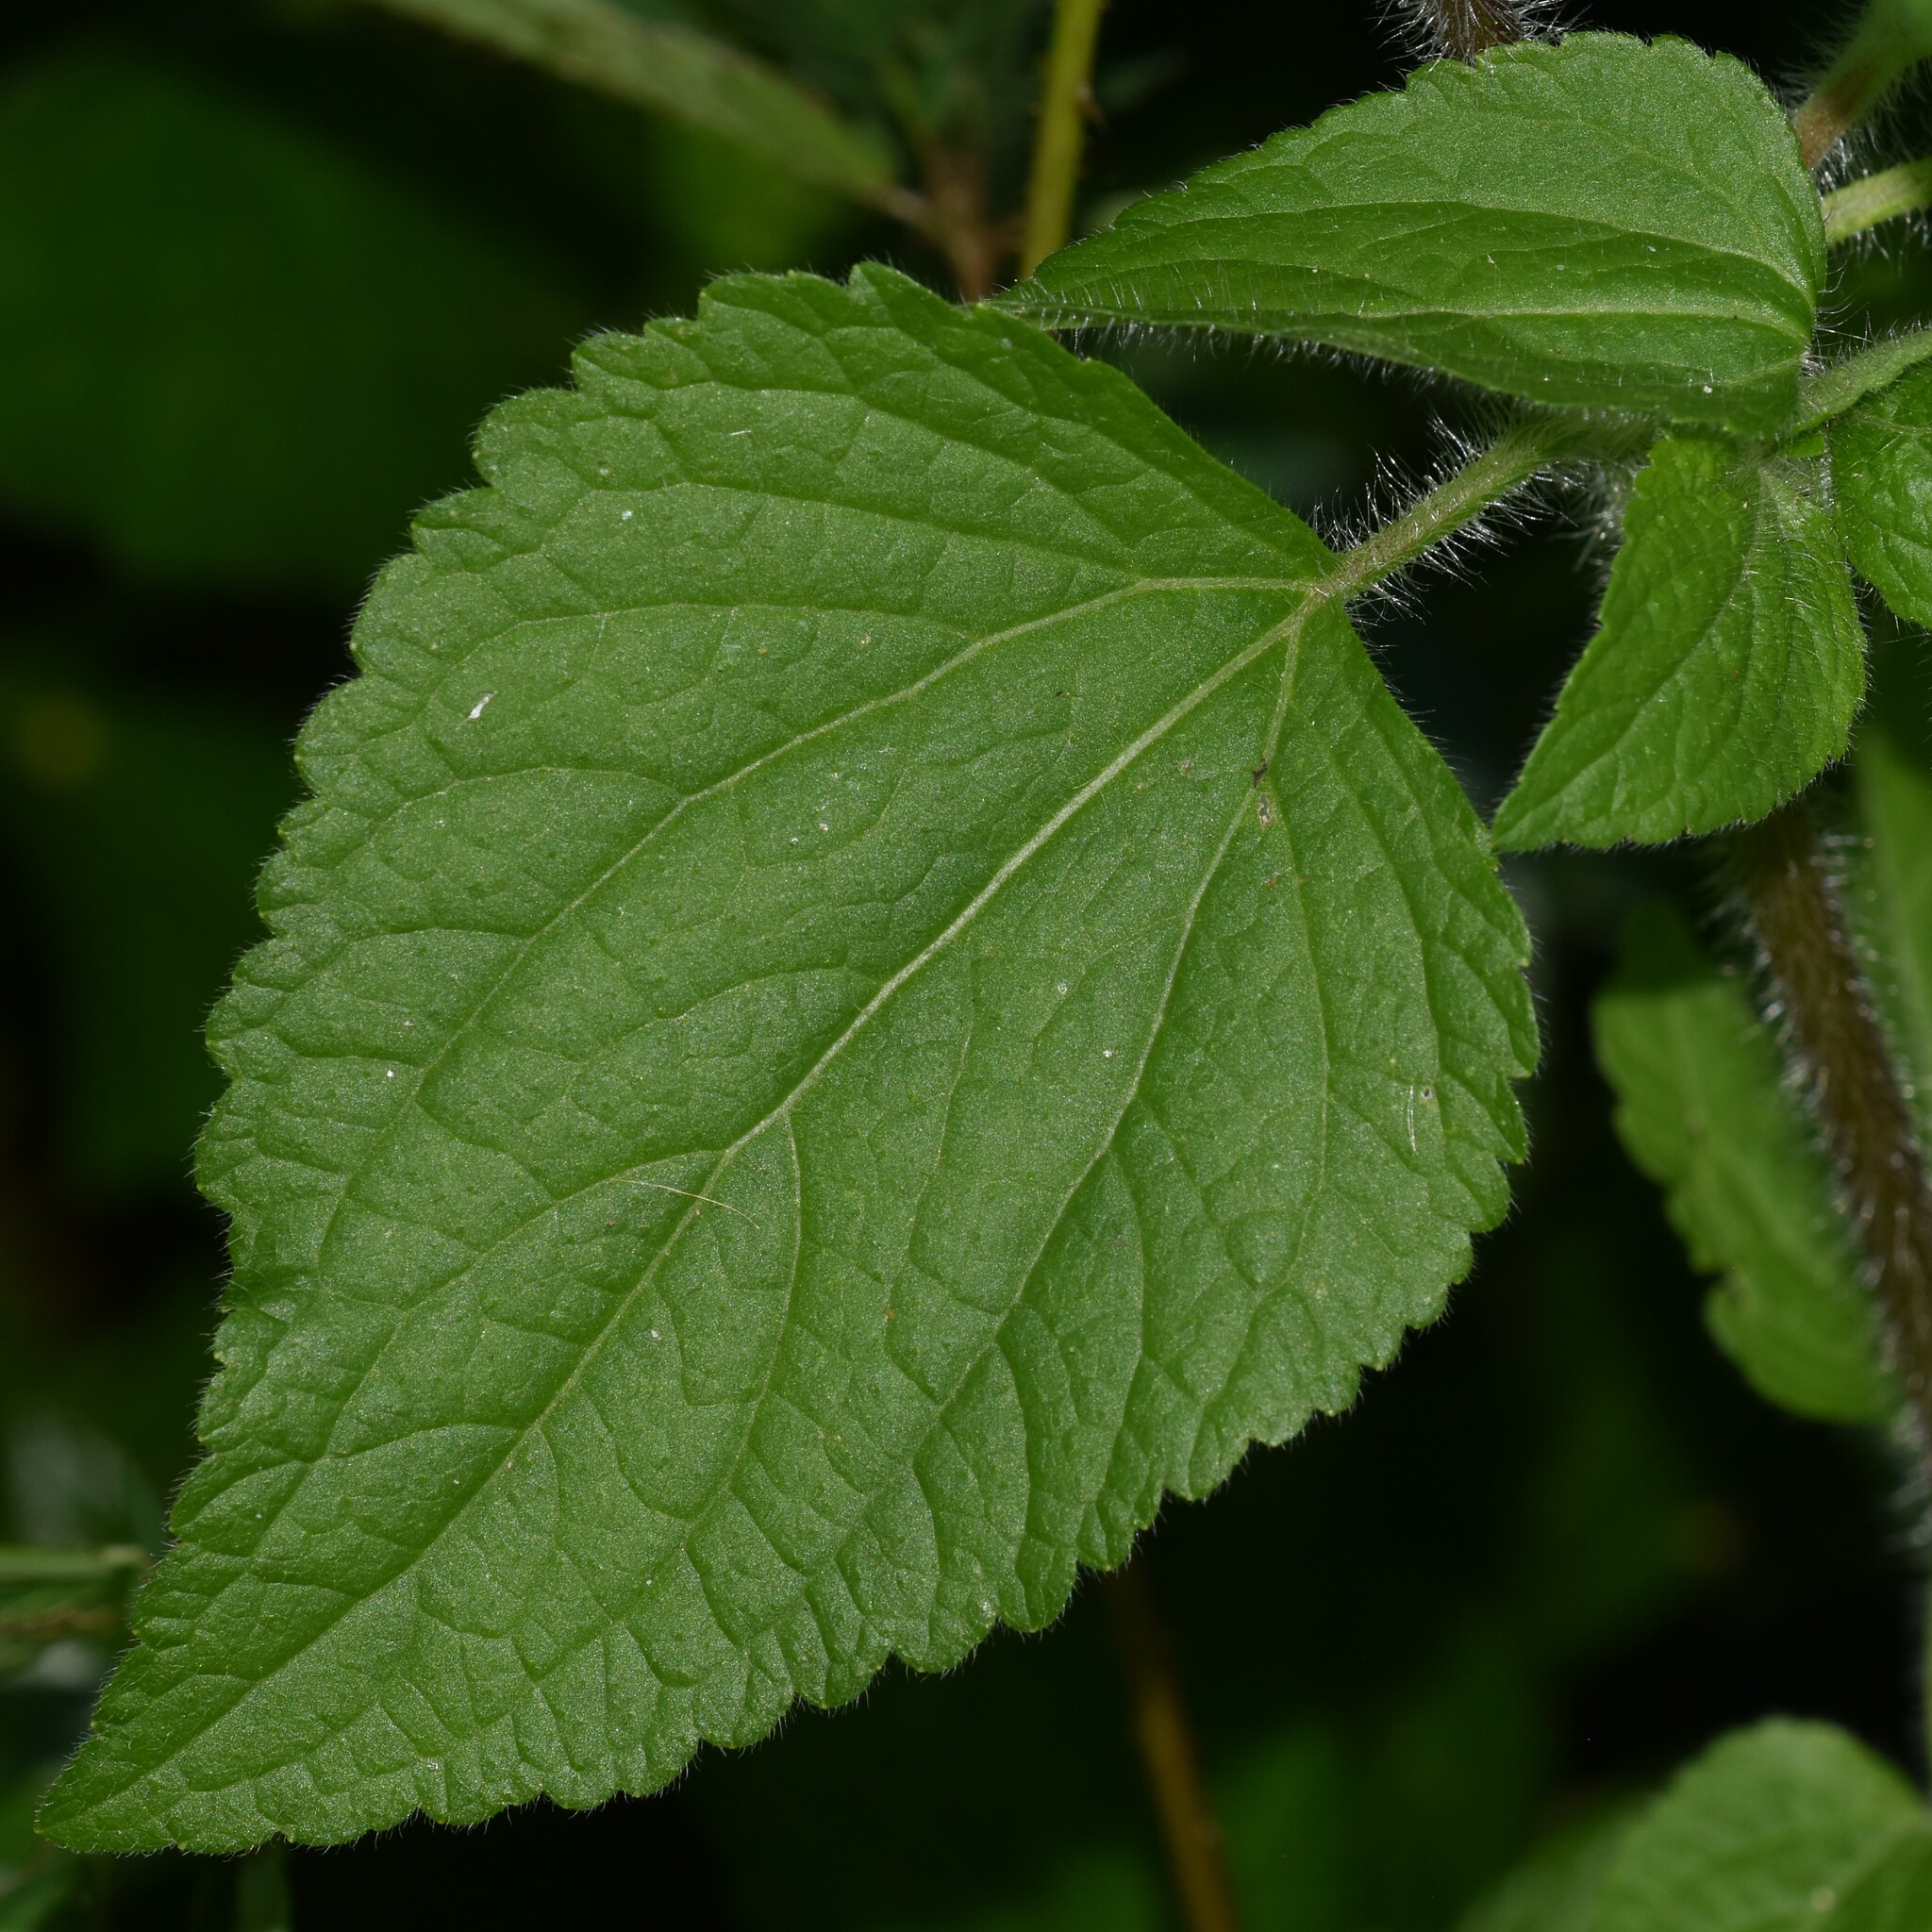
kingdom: Plantae
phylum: Tracheophyta
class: Magnoliopsida
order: Asterales
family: Asteraceae
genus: Ageratum
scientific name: Ageratum houstonianum
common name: Bluemink
